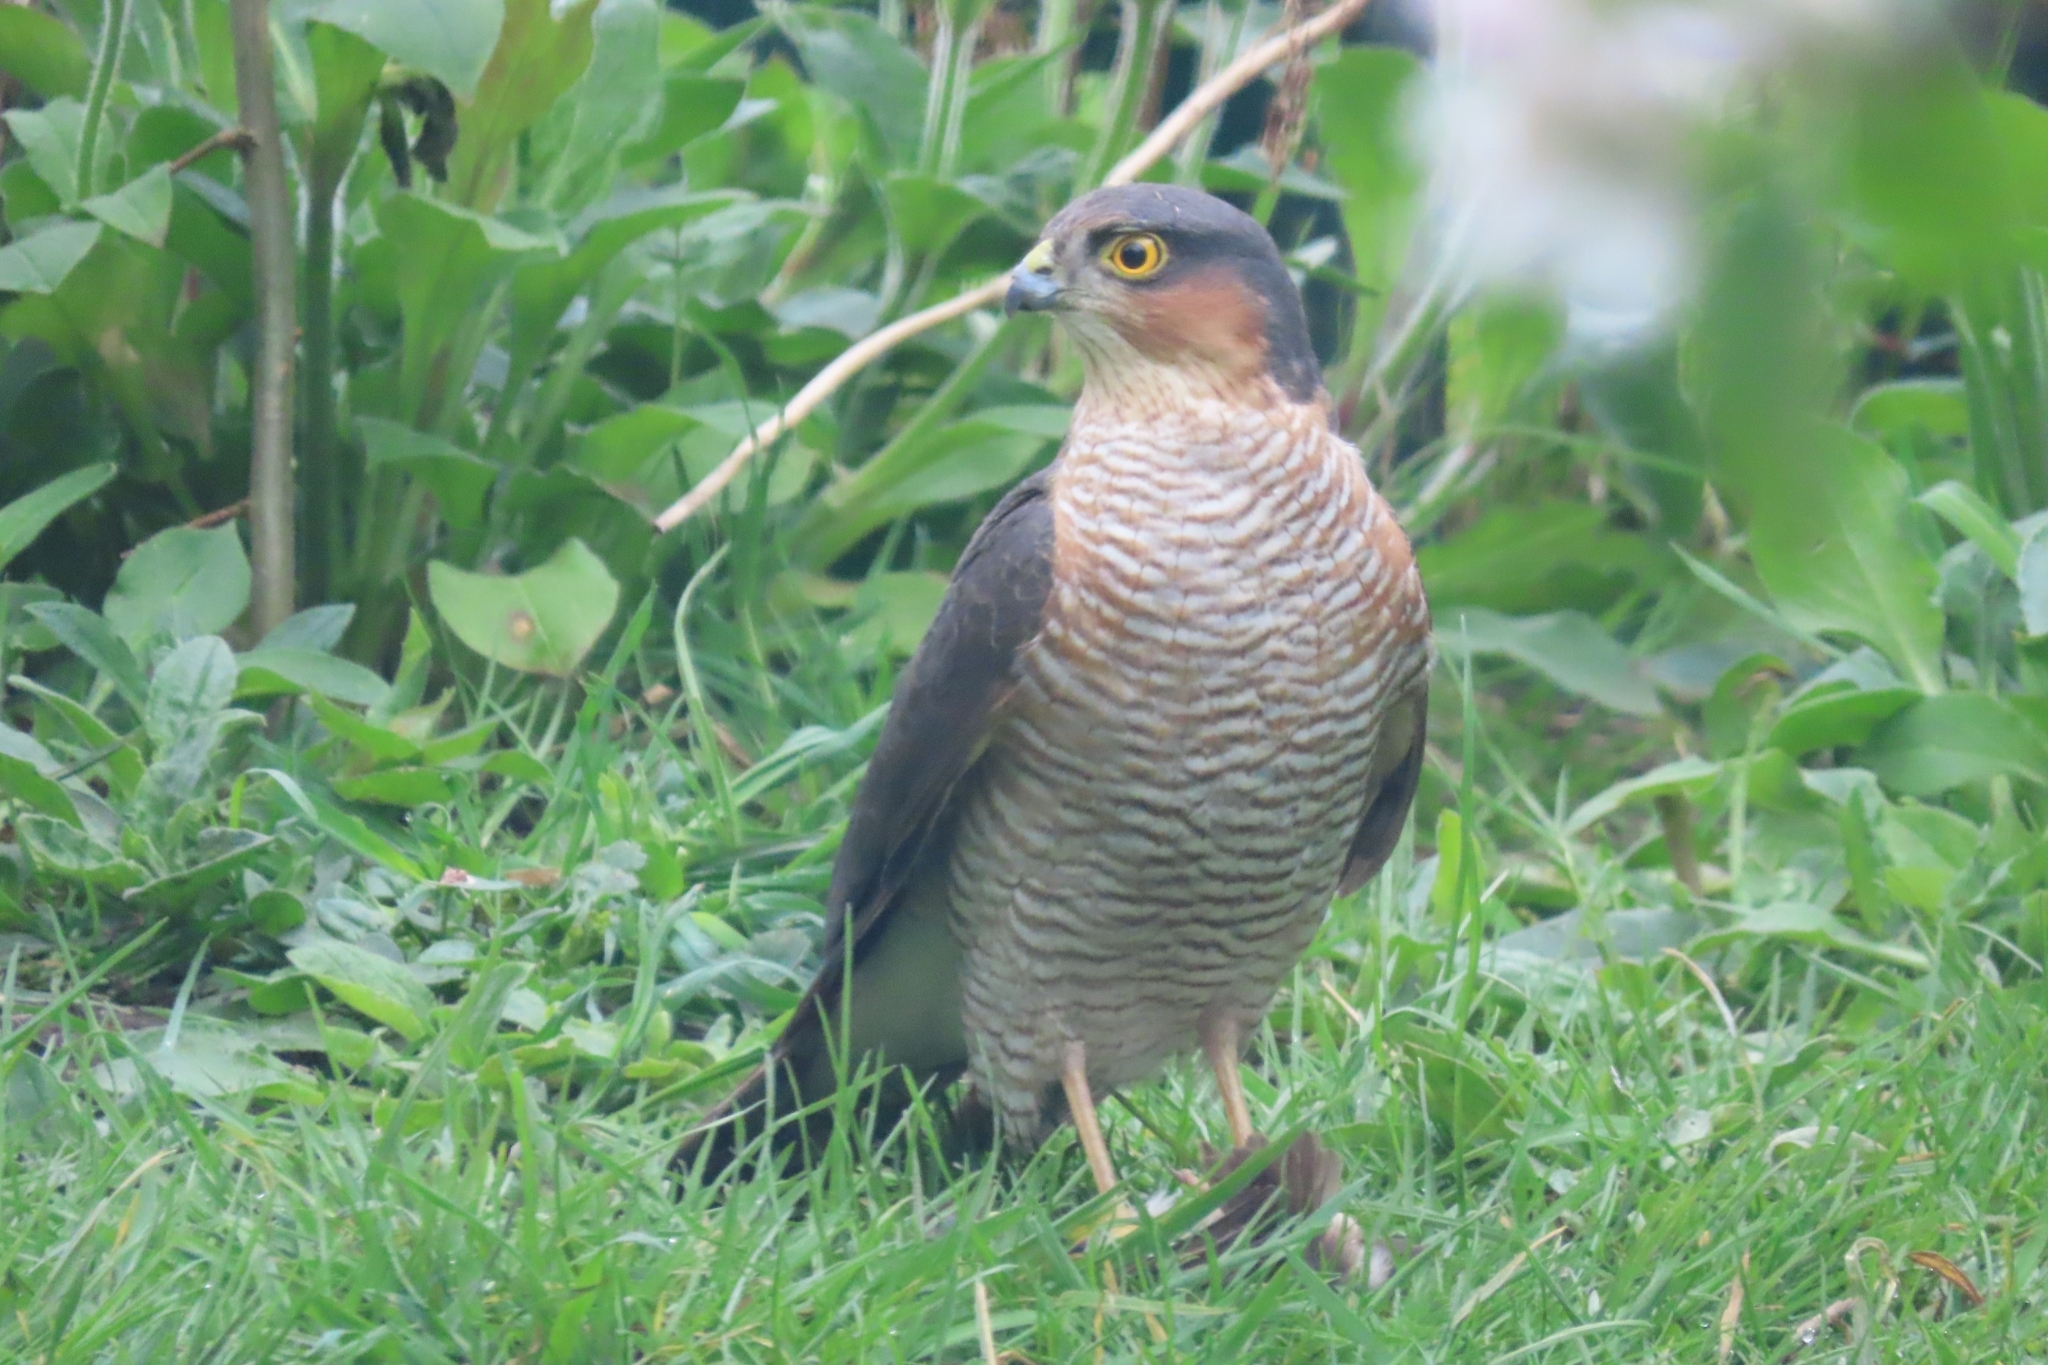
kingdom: Animalia
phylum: Chordata
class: Aves
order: Accipitriformes
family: Accipitridae
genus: Accipiter
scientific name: Accipiter nisus
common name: Eurasian sparrowhawk
